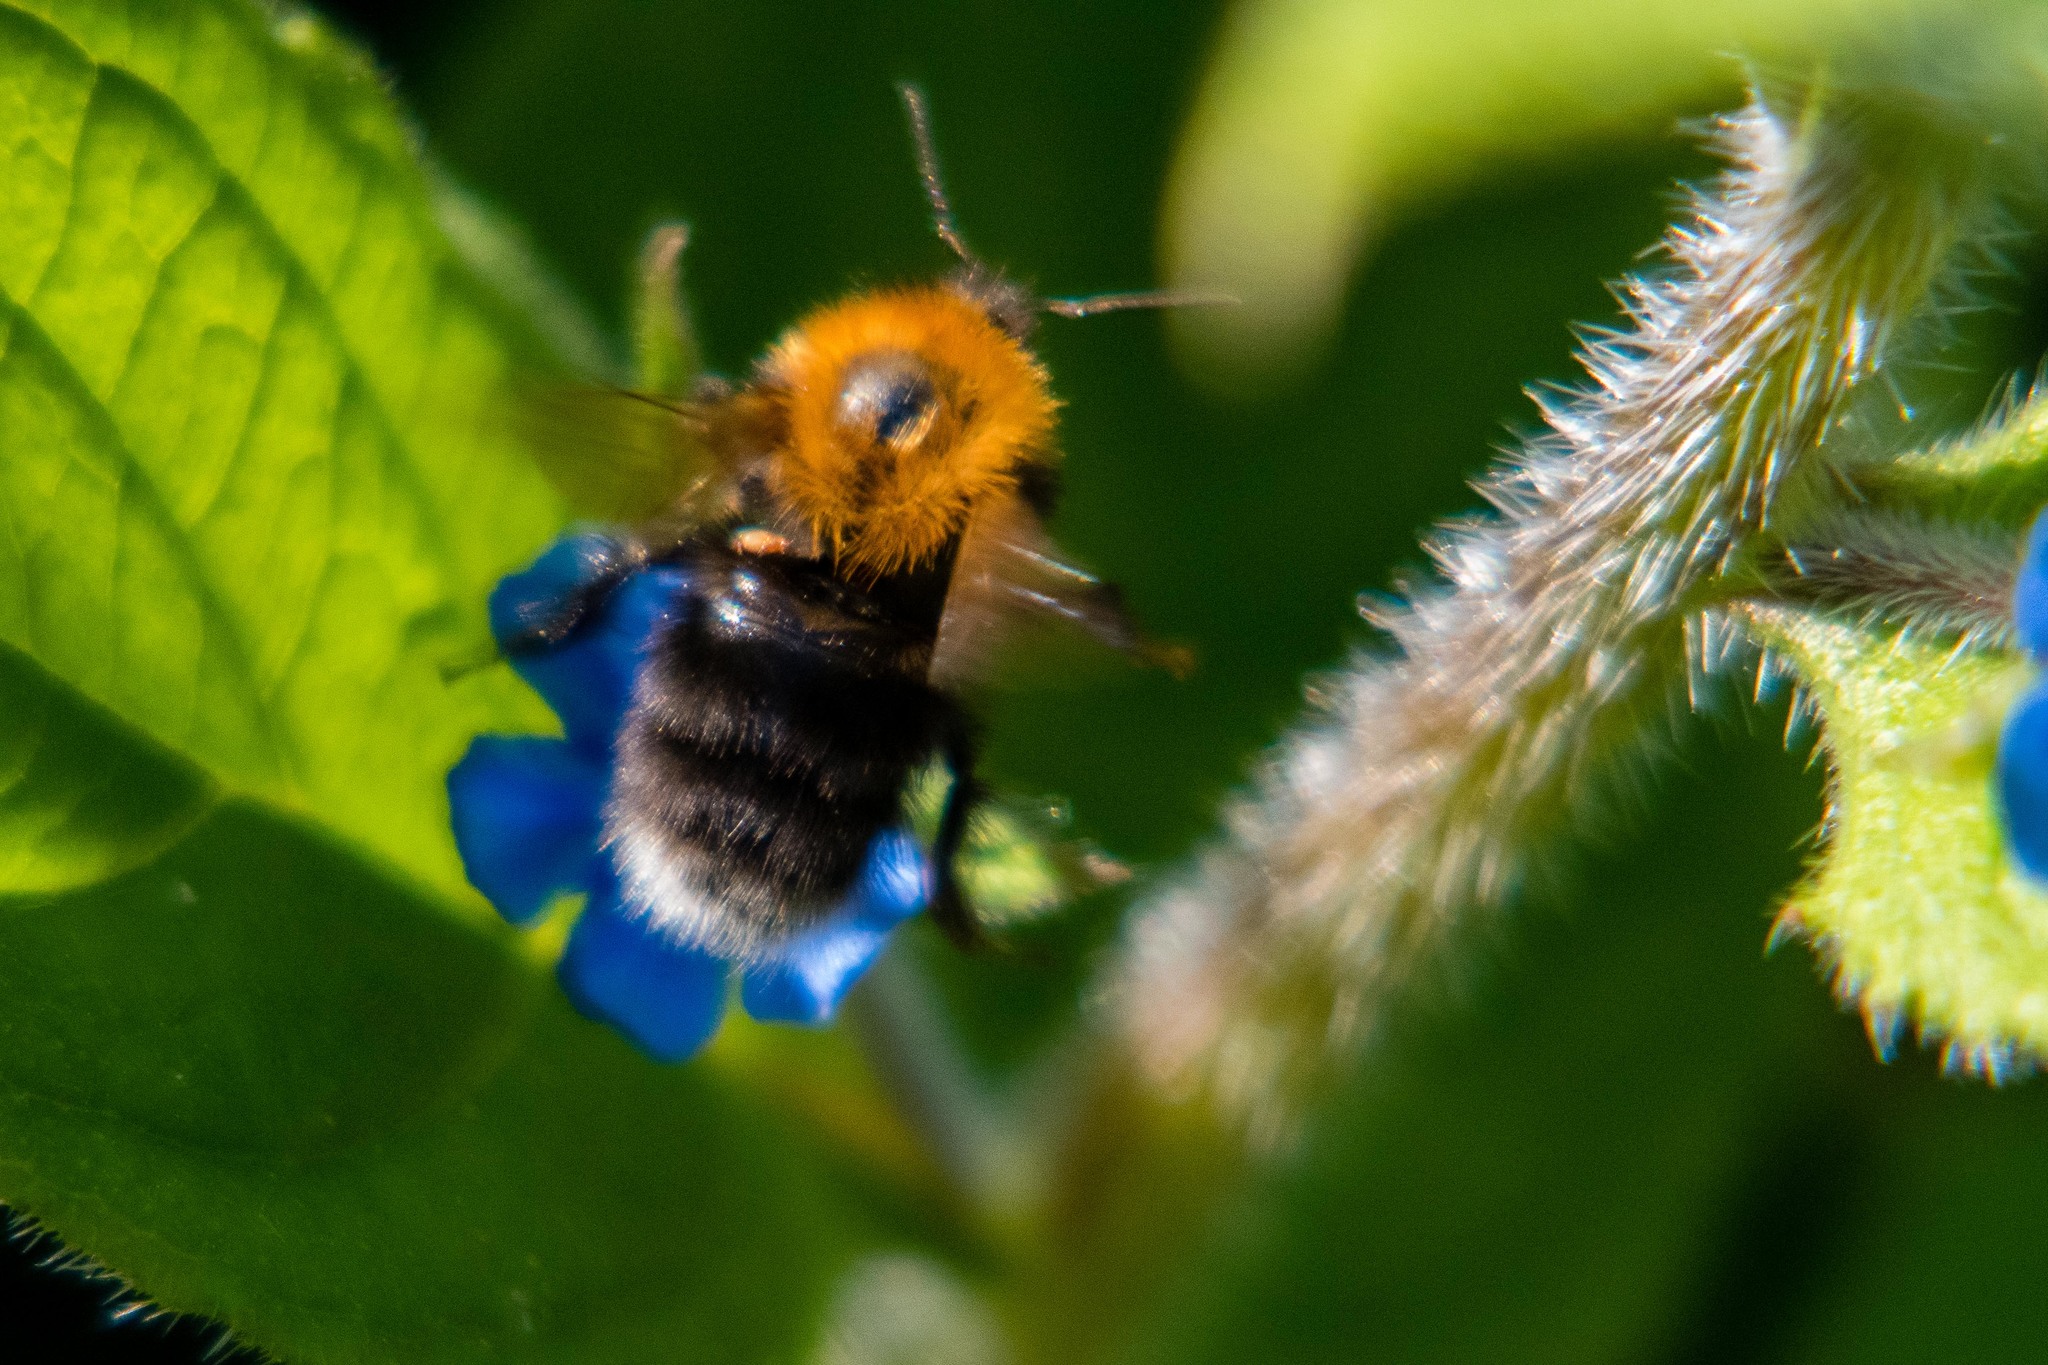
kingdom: Animalia
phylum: Arthropoda
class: Insecta
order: Hymenoptera
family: Apidae
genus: Bombus
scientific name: Bombus hypnorum
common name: New garden bumblebee
